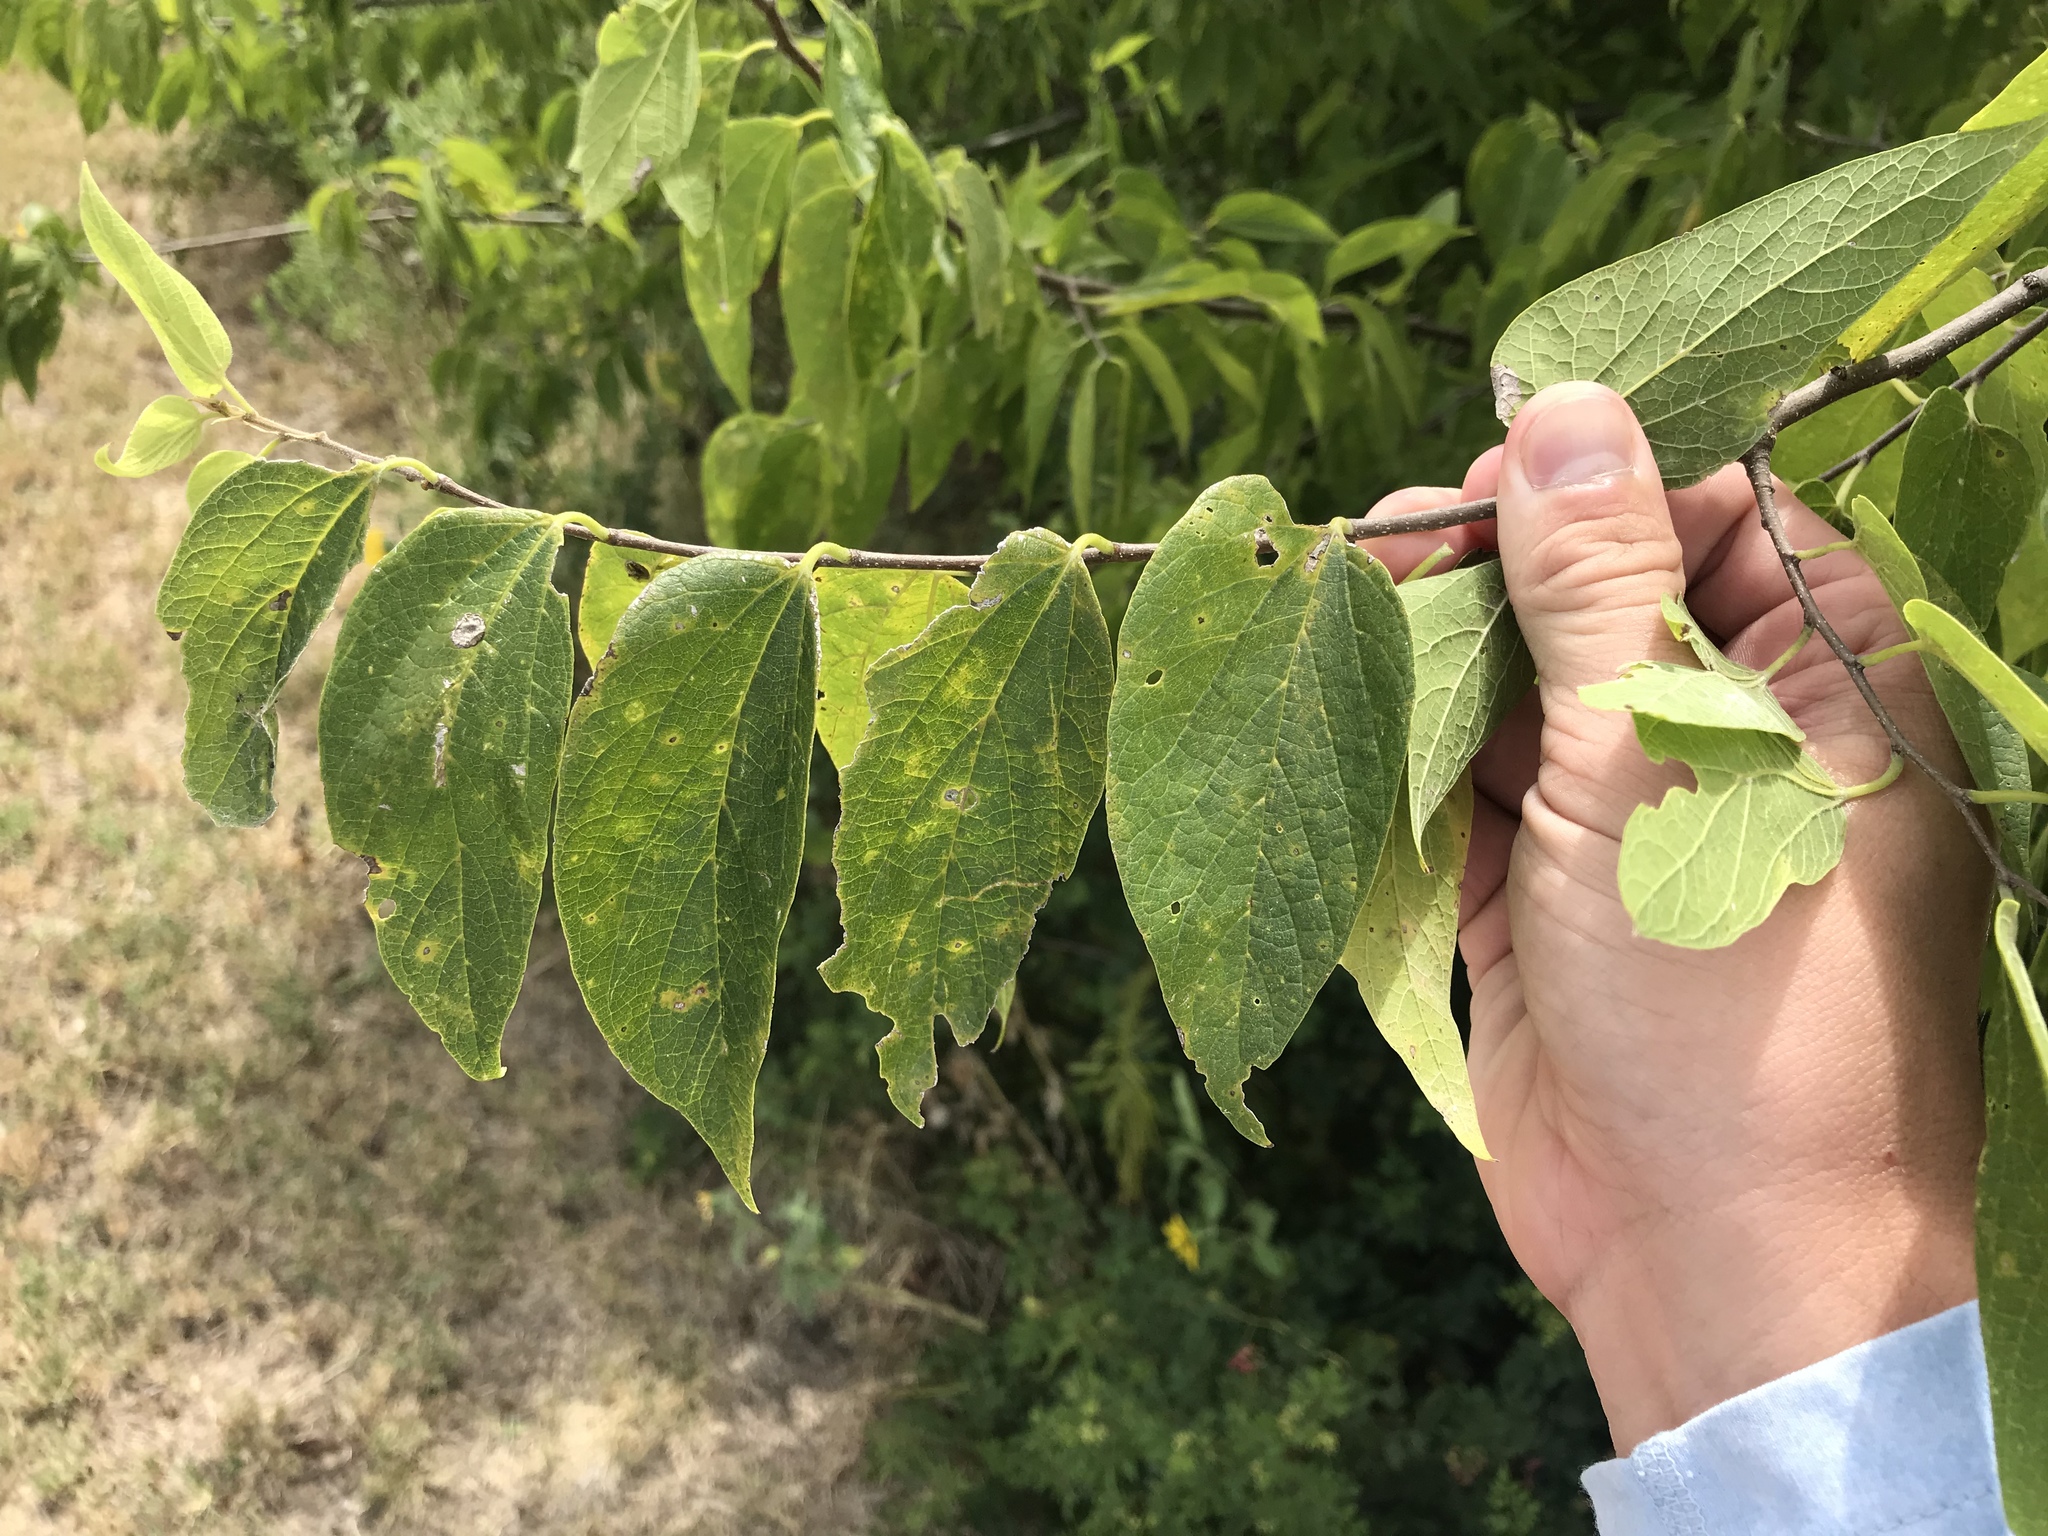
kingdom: Plantae
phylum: Tracheophyta
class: Magnoliopsida
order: Rosales
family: Cannabaceae
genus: Celtis
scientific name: Celtis laevigata
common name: Sugarberry
